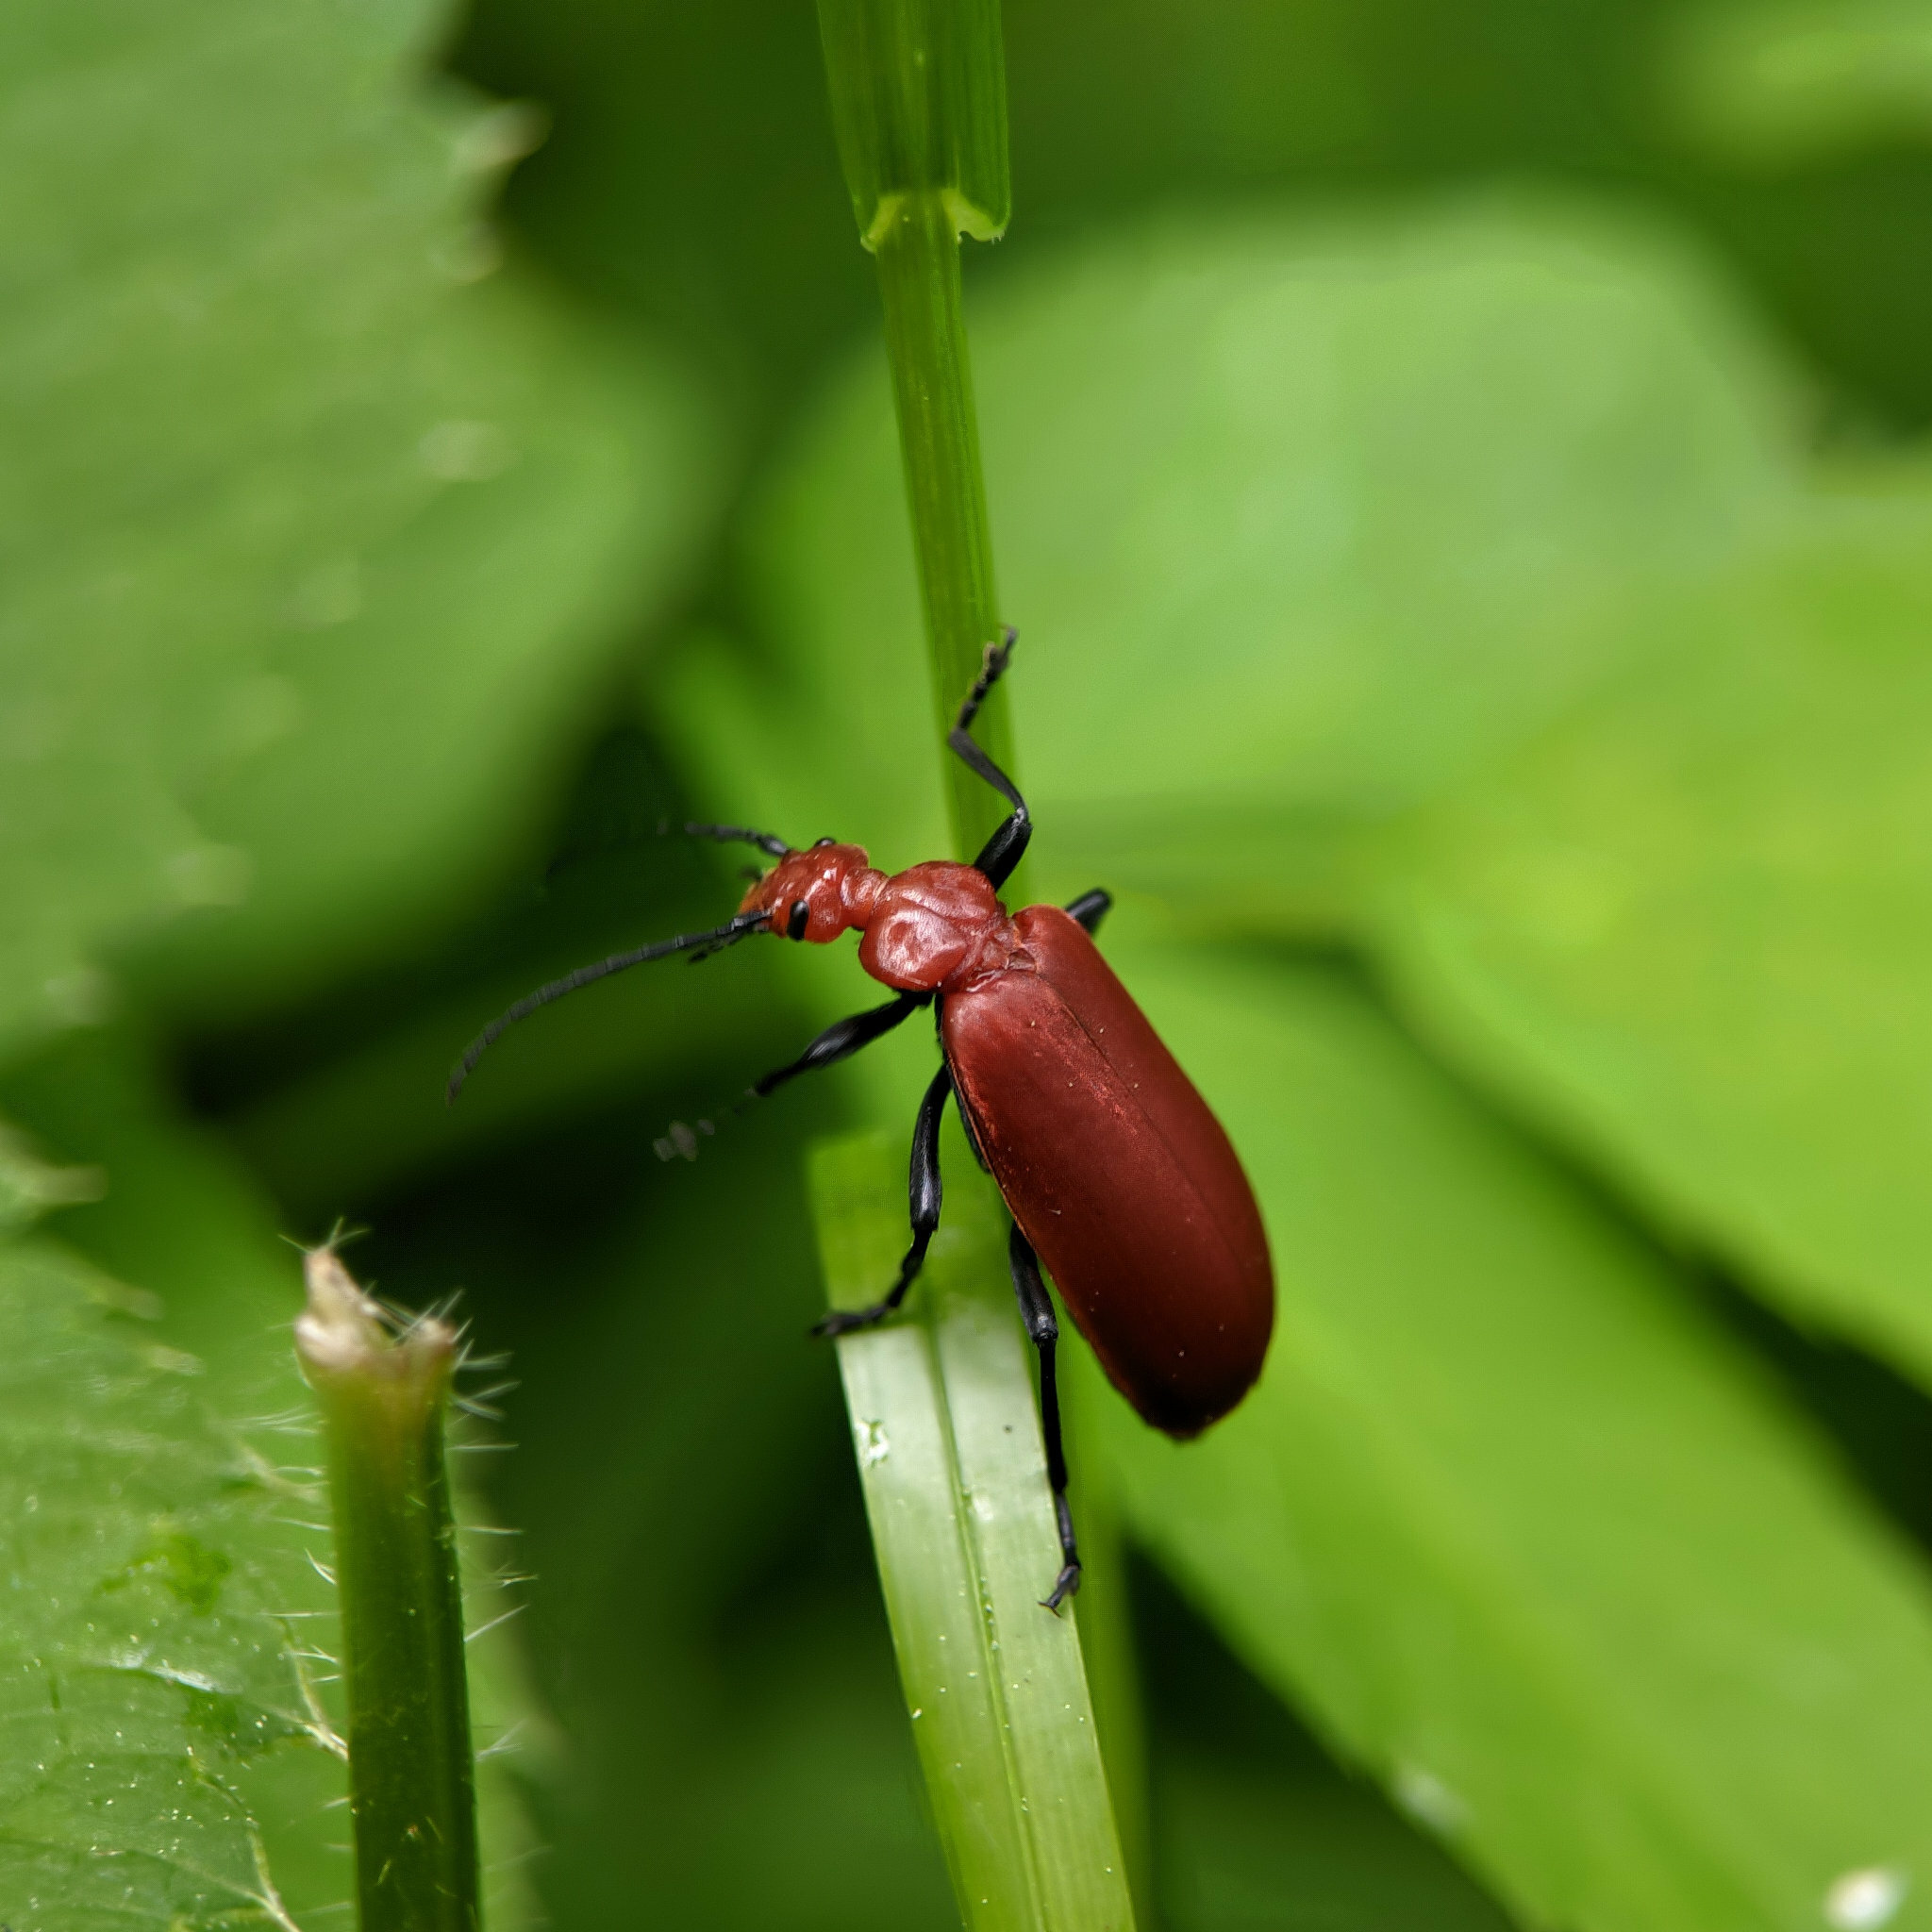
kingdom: Animalia
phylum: Arthropoda
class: Insecta
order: Coleoptera
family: Pyrochroidae
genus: Pyrochroa
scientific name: Pyrochroa serraticornis
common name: Red-headed cardinal beetle
